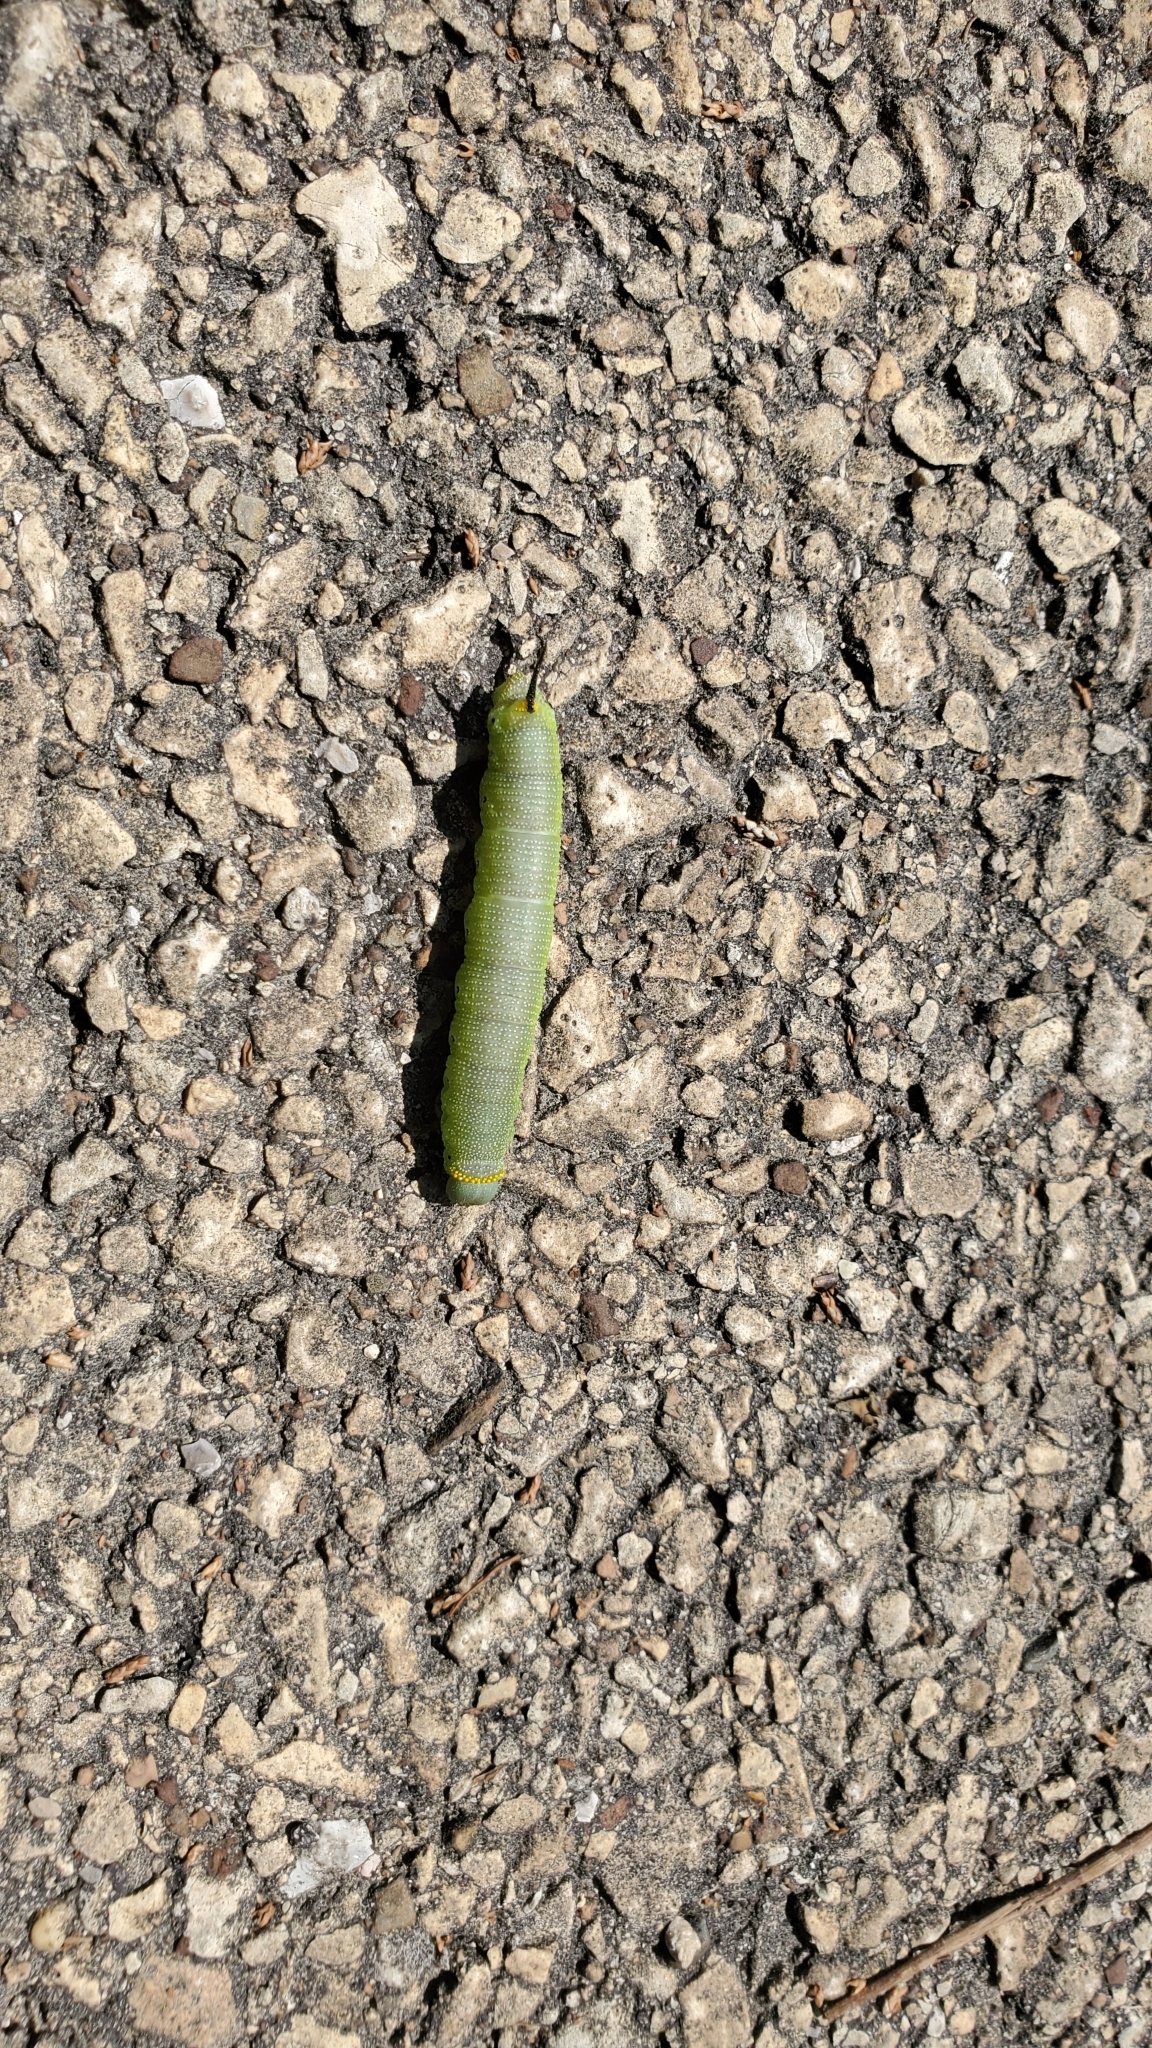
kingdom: Animalia
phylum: Arthropoda
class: Insecta
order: Lepidoptera
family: Sphingidae
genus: Hemaris
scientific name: Hemaris diffinis
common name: Bumblebee moth
